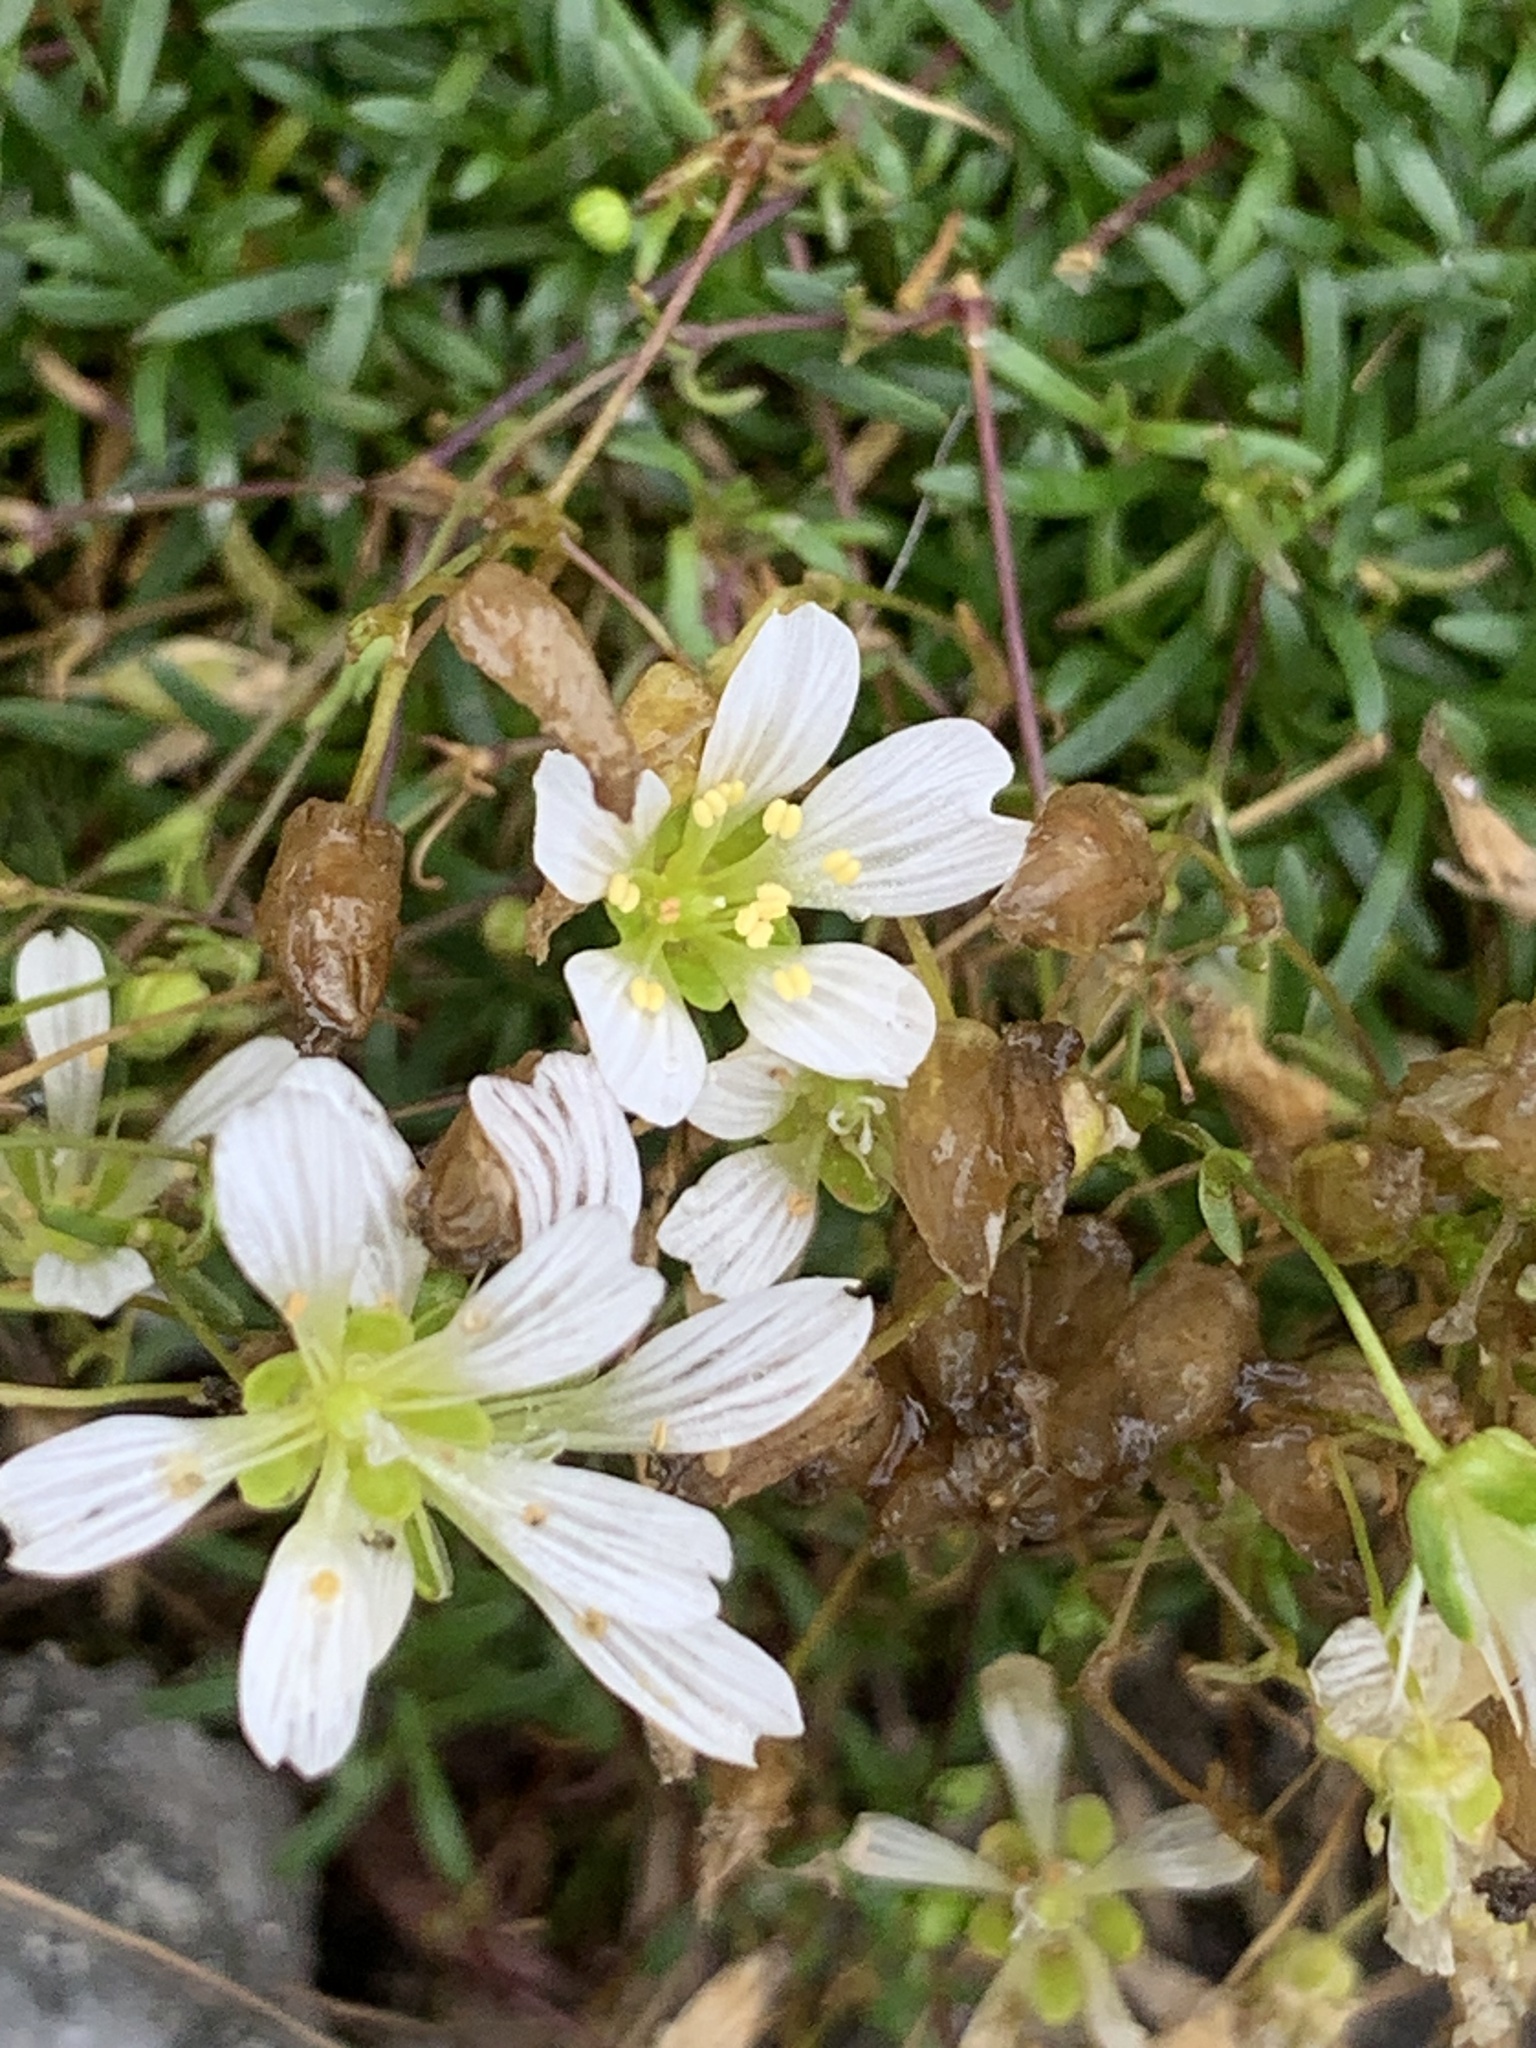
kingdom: Plantae
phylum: Tracheophyta
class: Magnoliopsida
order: Caryophyllales
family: Caryophyllaceae
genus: Geocarpon
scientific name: Geocarpon groenlandicum
